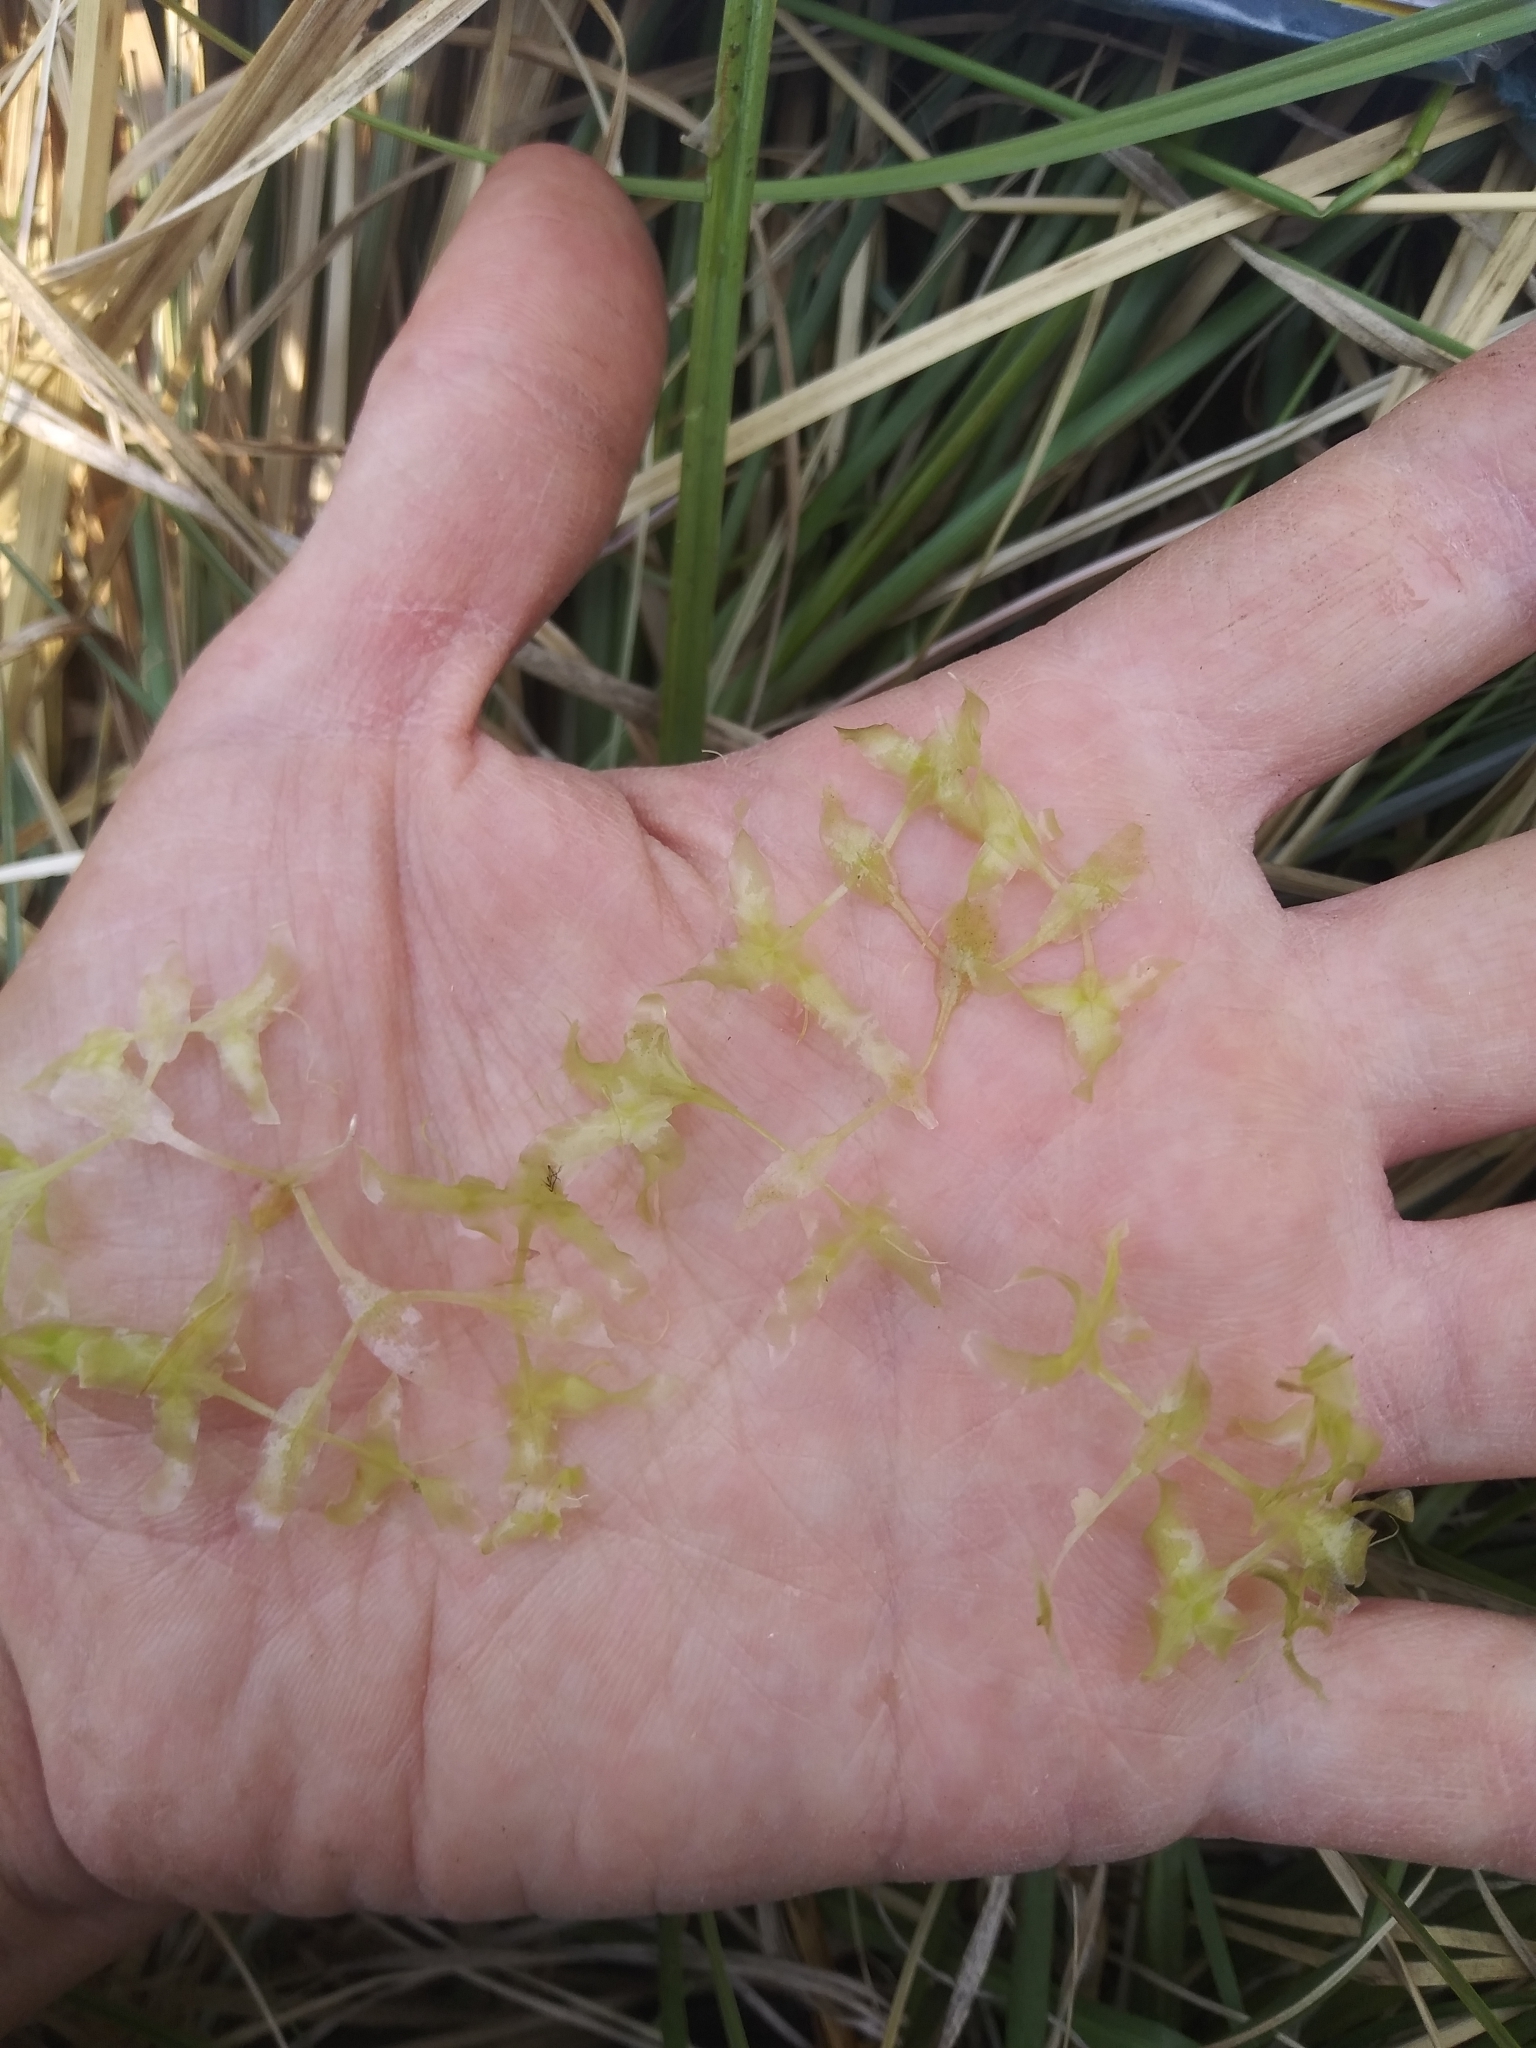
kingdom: Plantae
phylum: Tracheophyta
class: Liliopsida
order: Alismatales
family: Araceae
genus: Lemna
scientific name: Lemna trisulca
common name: Ivy-leaved duckweed
